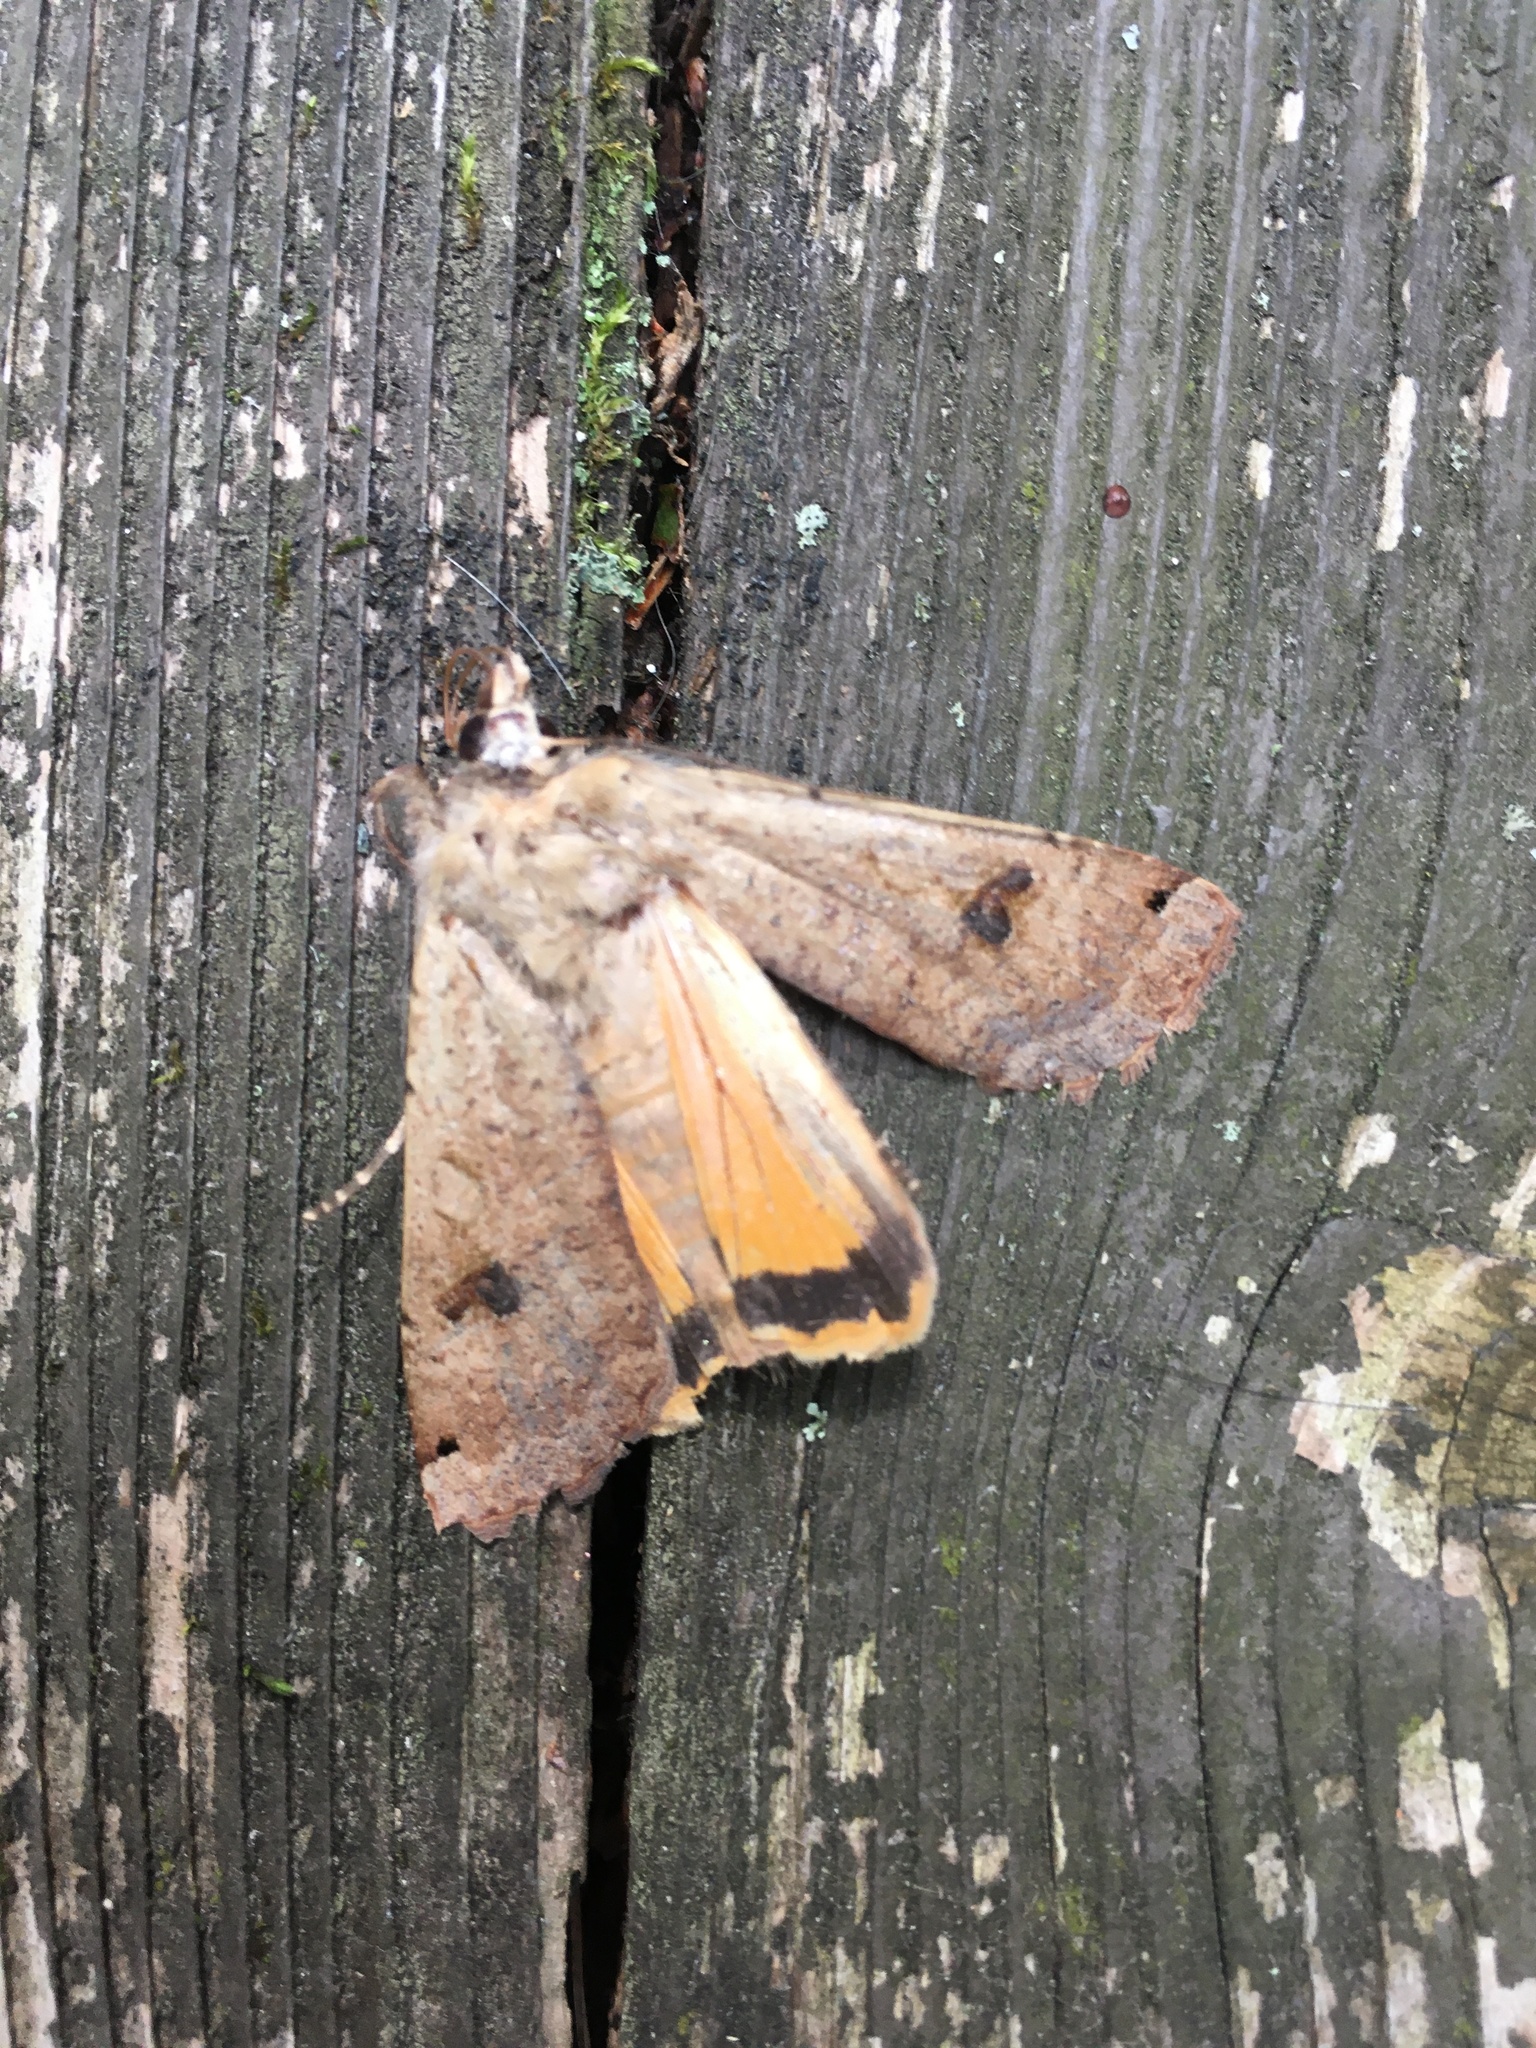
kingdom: Animalia
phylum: Arthropoda
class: Insecta
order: Lepidoptera
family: Noctuidae
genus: Noctua
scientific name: Noctua pronuba
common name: Large yellow underwing
